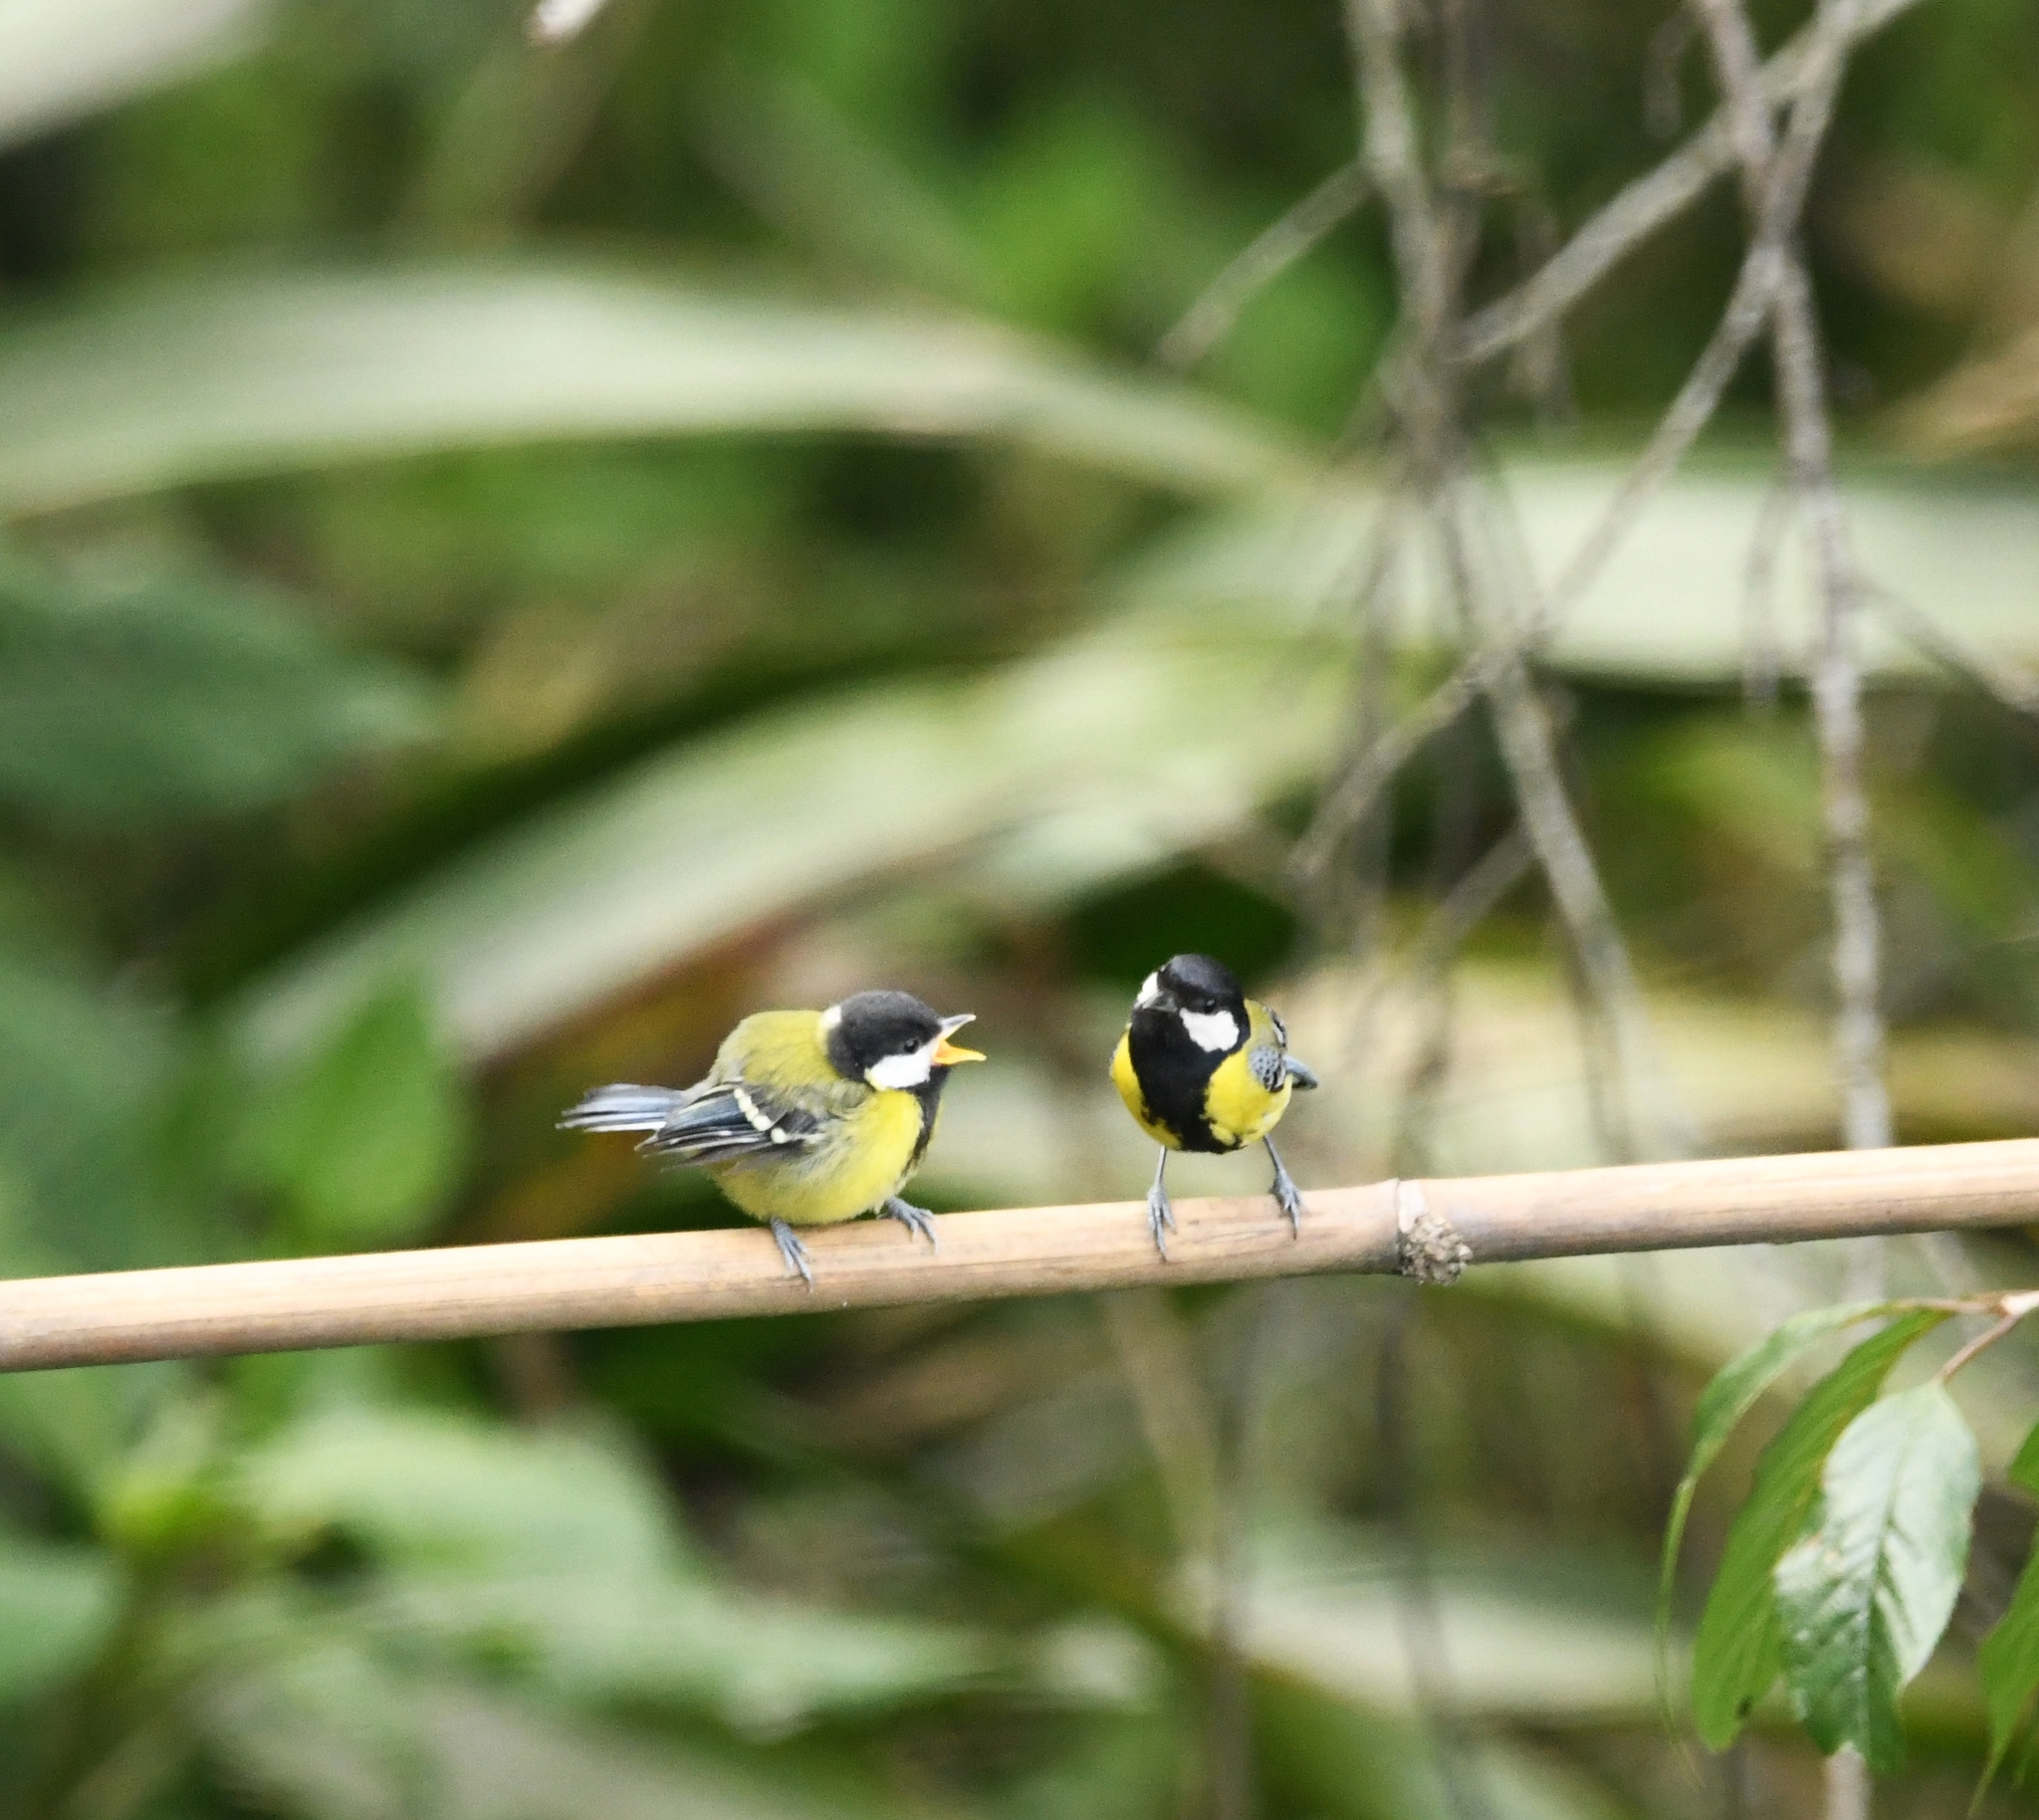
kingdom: Animalia
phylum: Chordata
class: Aves
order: Passeriformes
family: Paridae
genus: Parus
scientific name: Parus monticolus
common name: Green-backed tit
